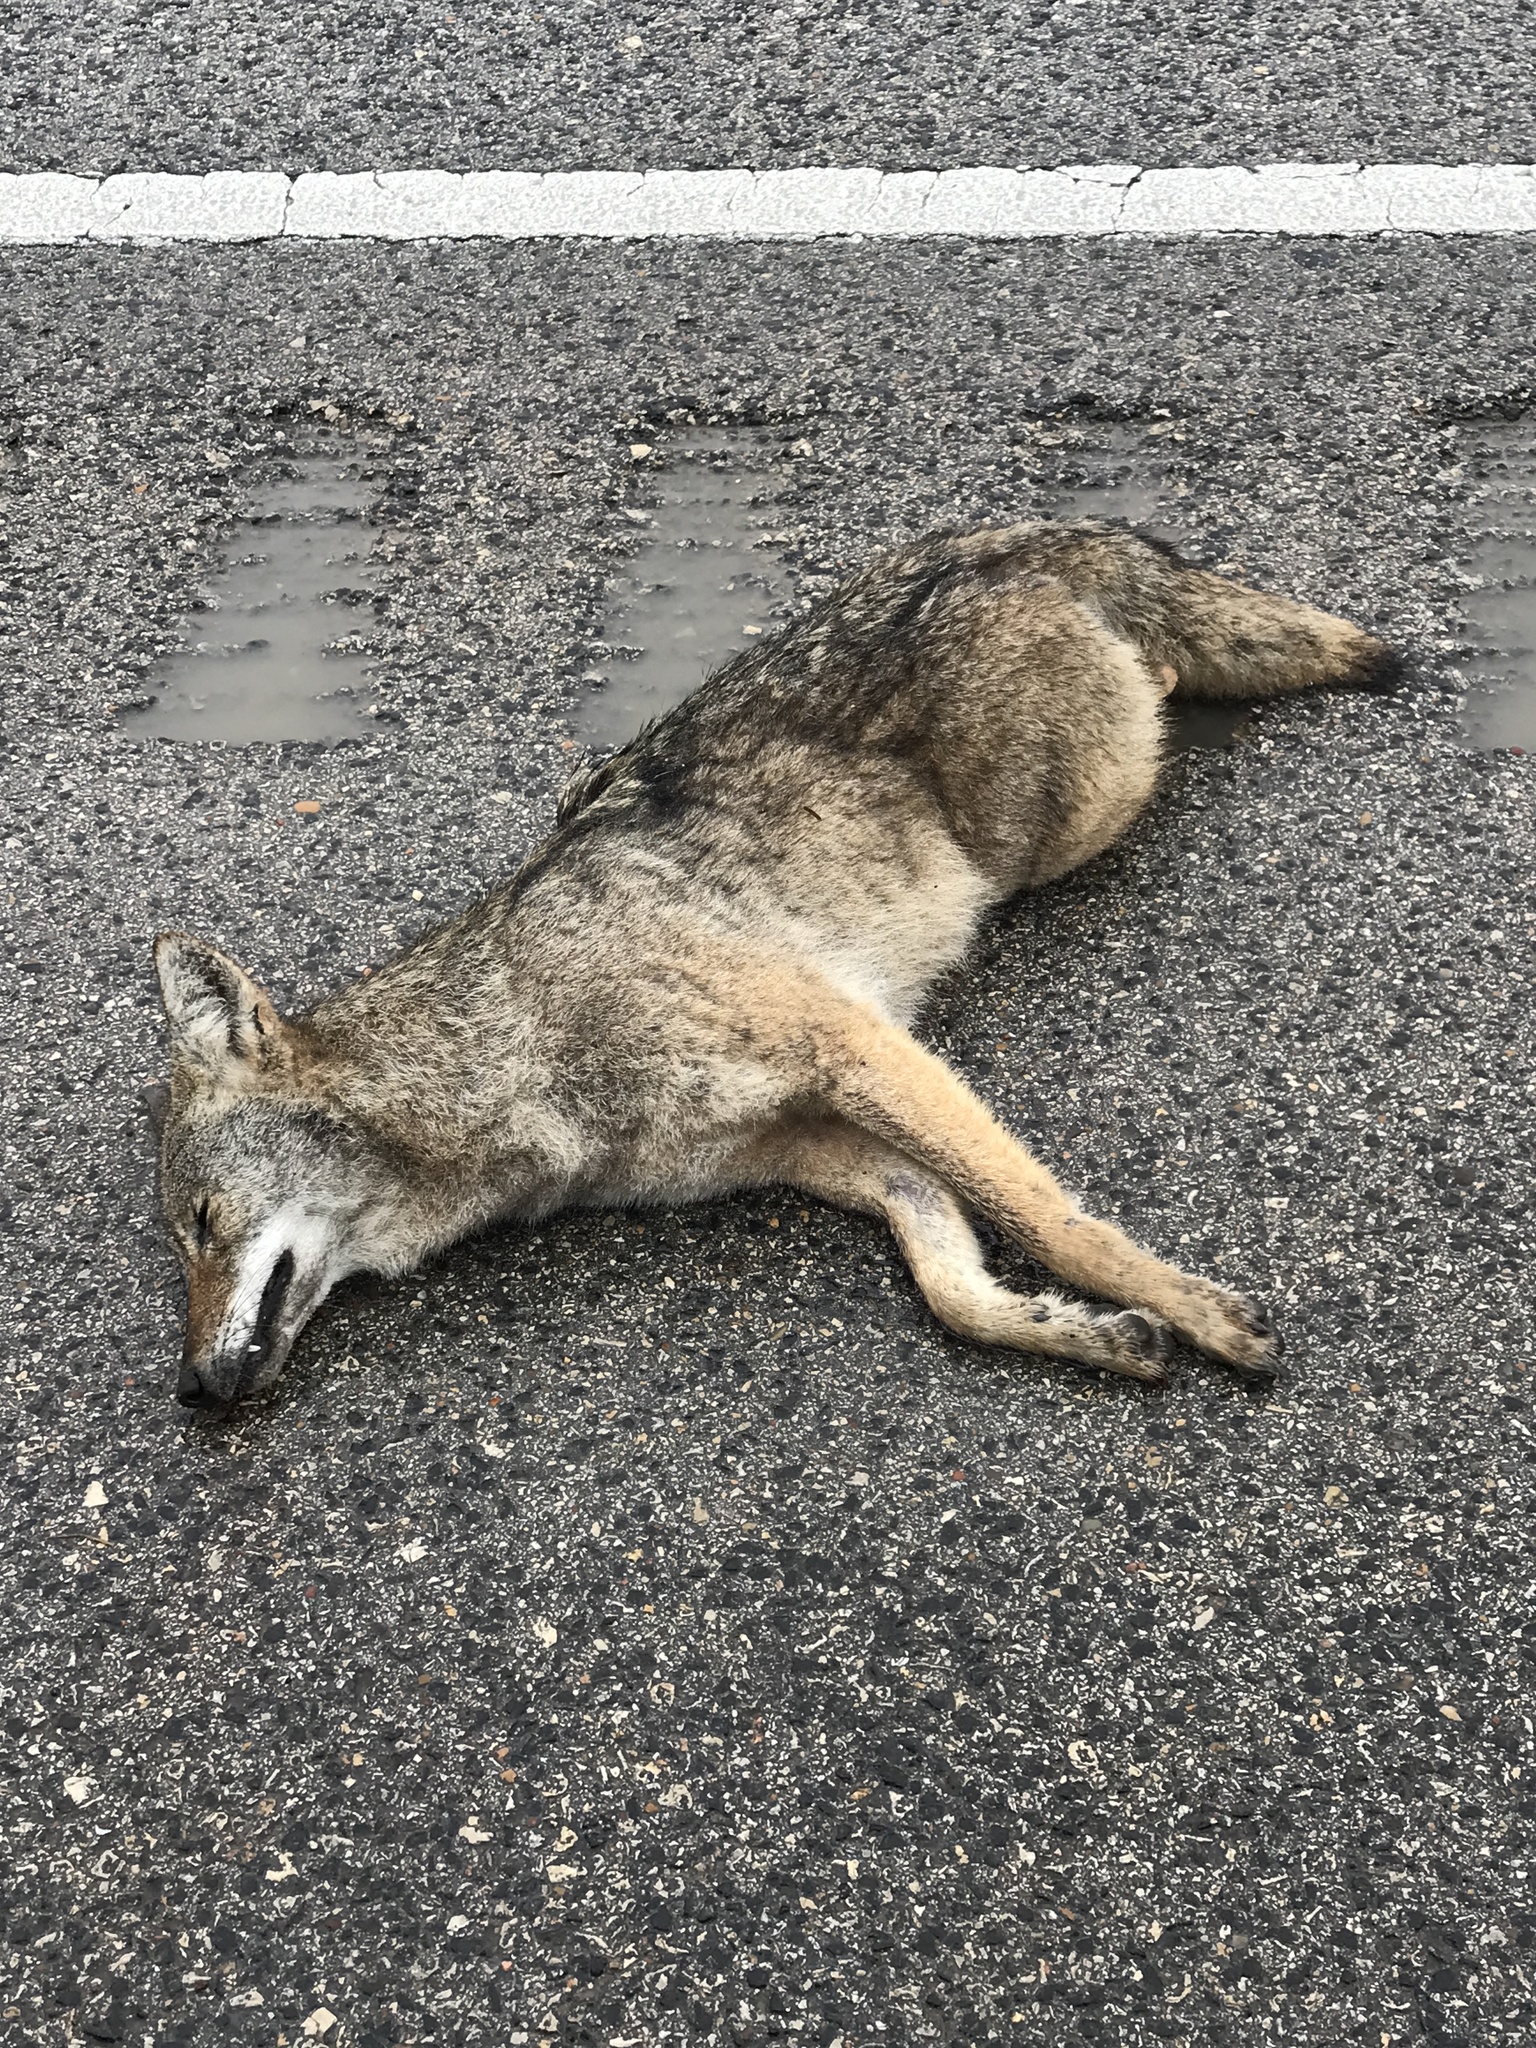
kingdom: Animalia
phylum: Chordata
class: Mammalia
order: Carnivora
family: Canidae
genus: Canis
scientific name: Canis latrans
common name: Coyote
